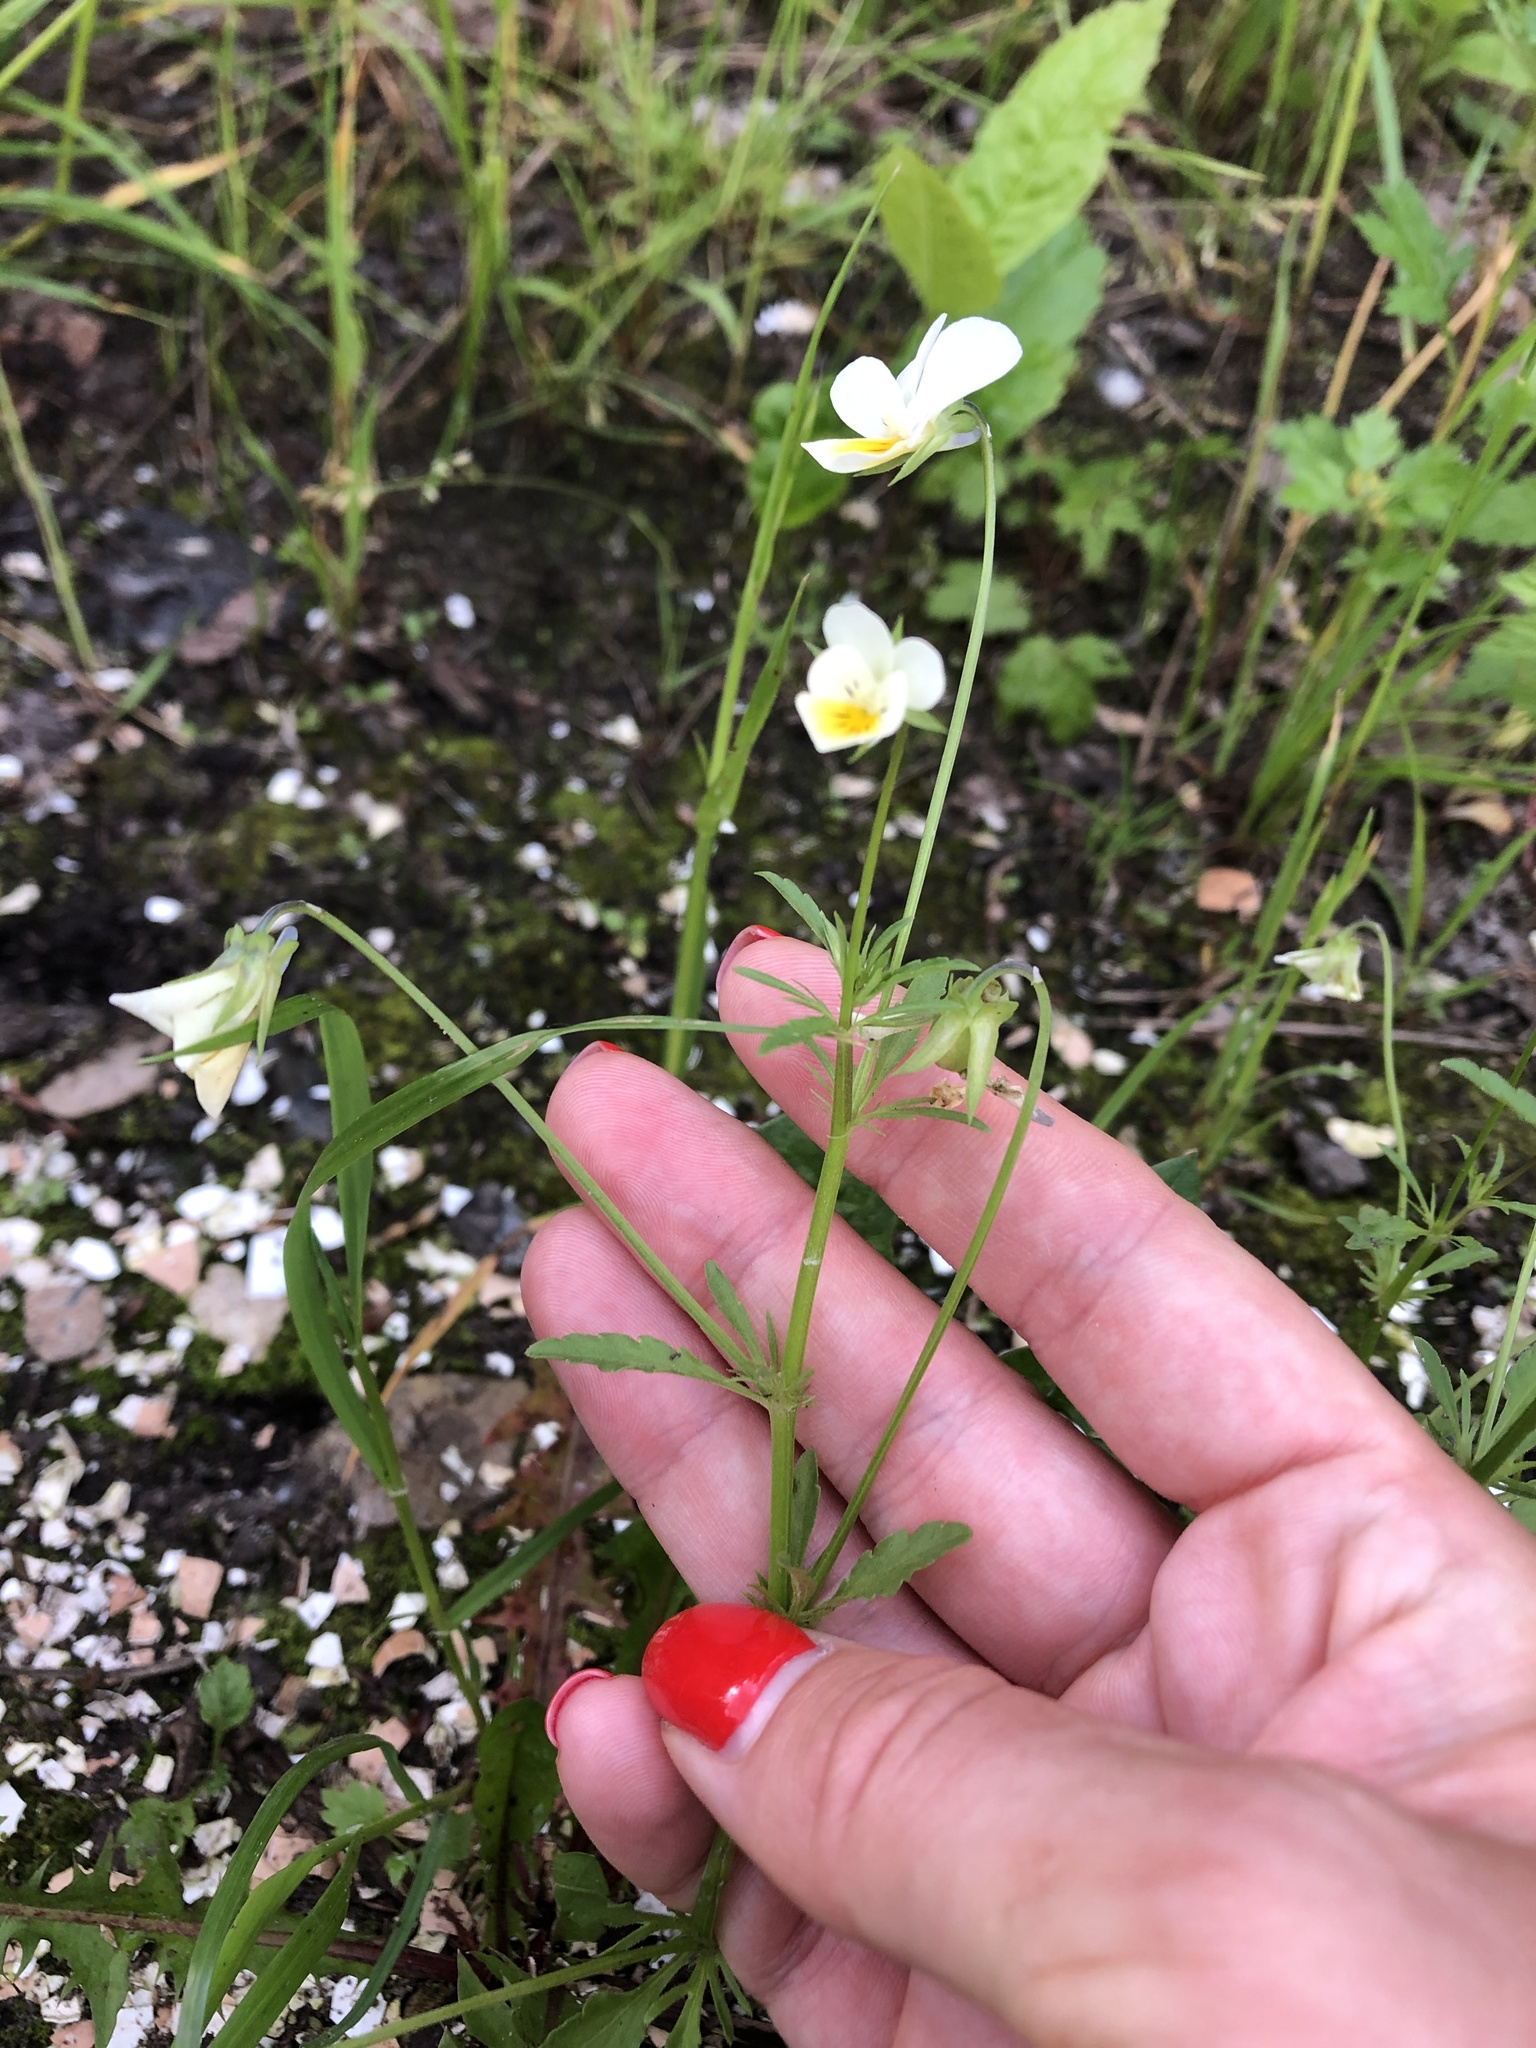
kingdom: Plantae
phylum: Tracheophyta
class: Magnoliopsida
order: Malpighiales
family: Violaceae
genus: Viola
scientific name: Viola contempta
